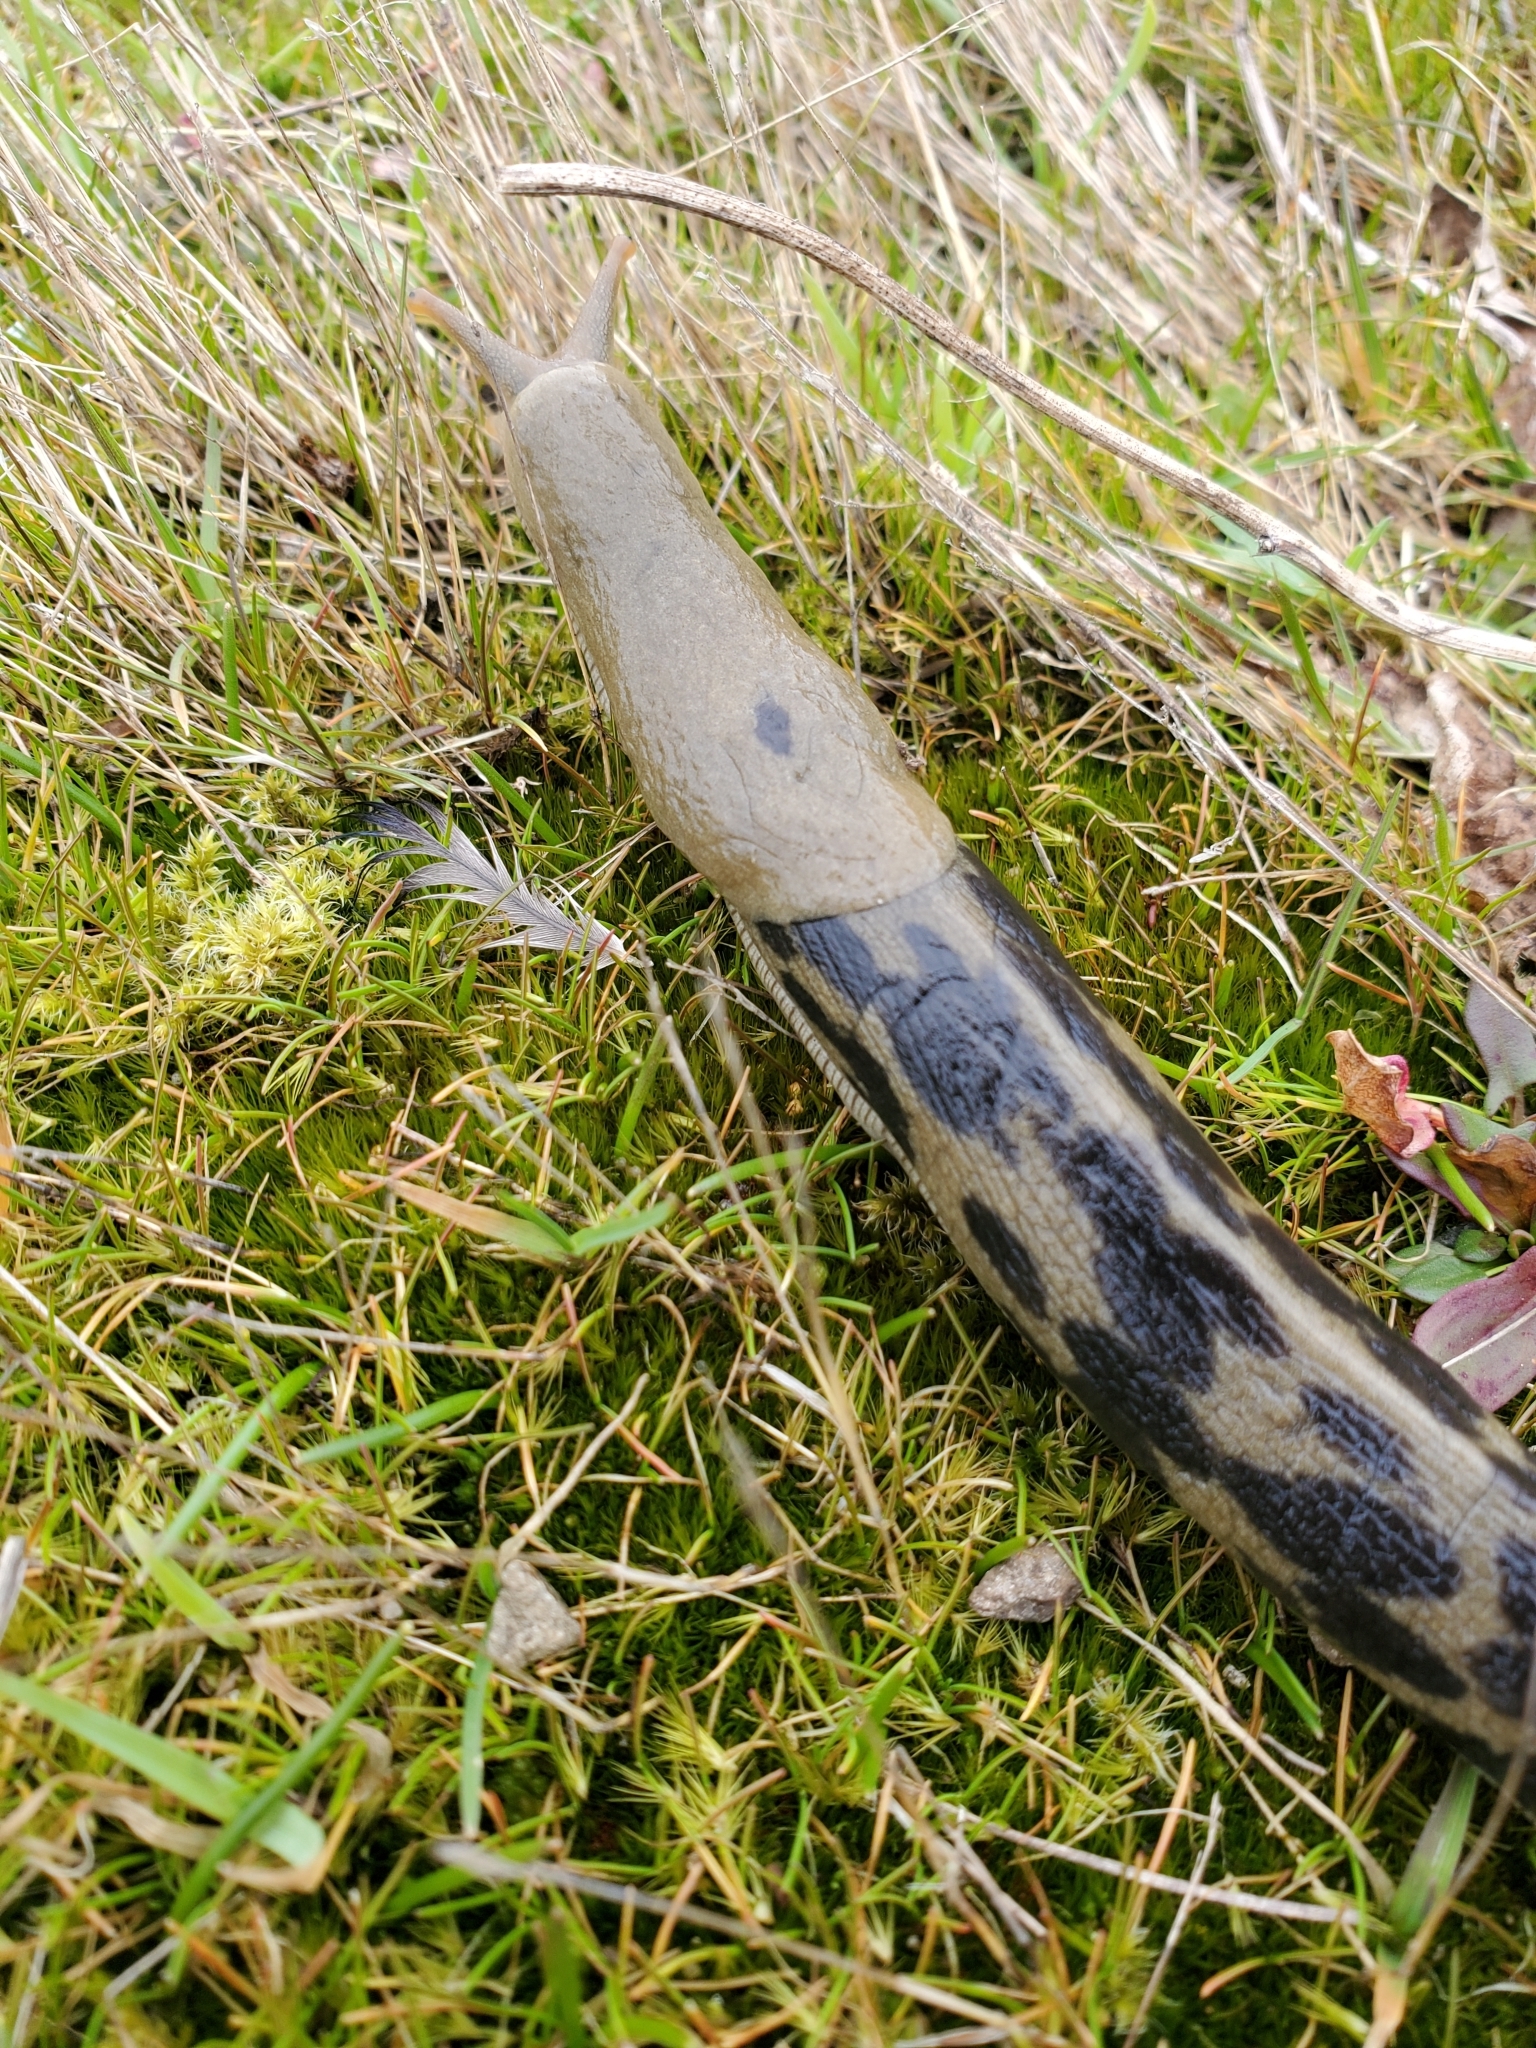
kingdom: Animalia
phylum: Mollusca
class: Gastropoda
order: Stylommatophora
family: Ariolimacidae
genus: Ariolimax
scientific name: Ariolimax columbianus
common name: Pacific banana slug
